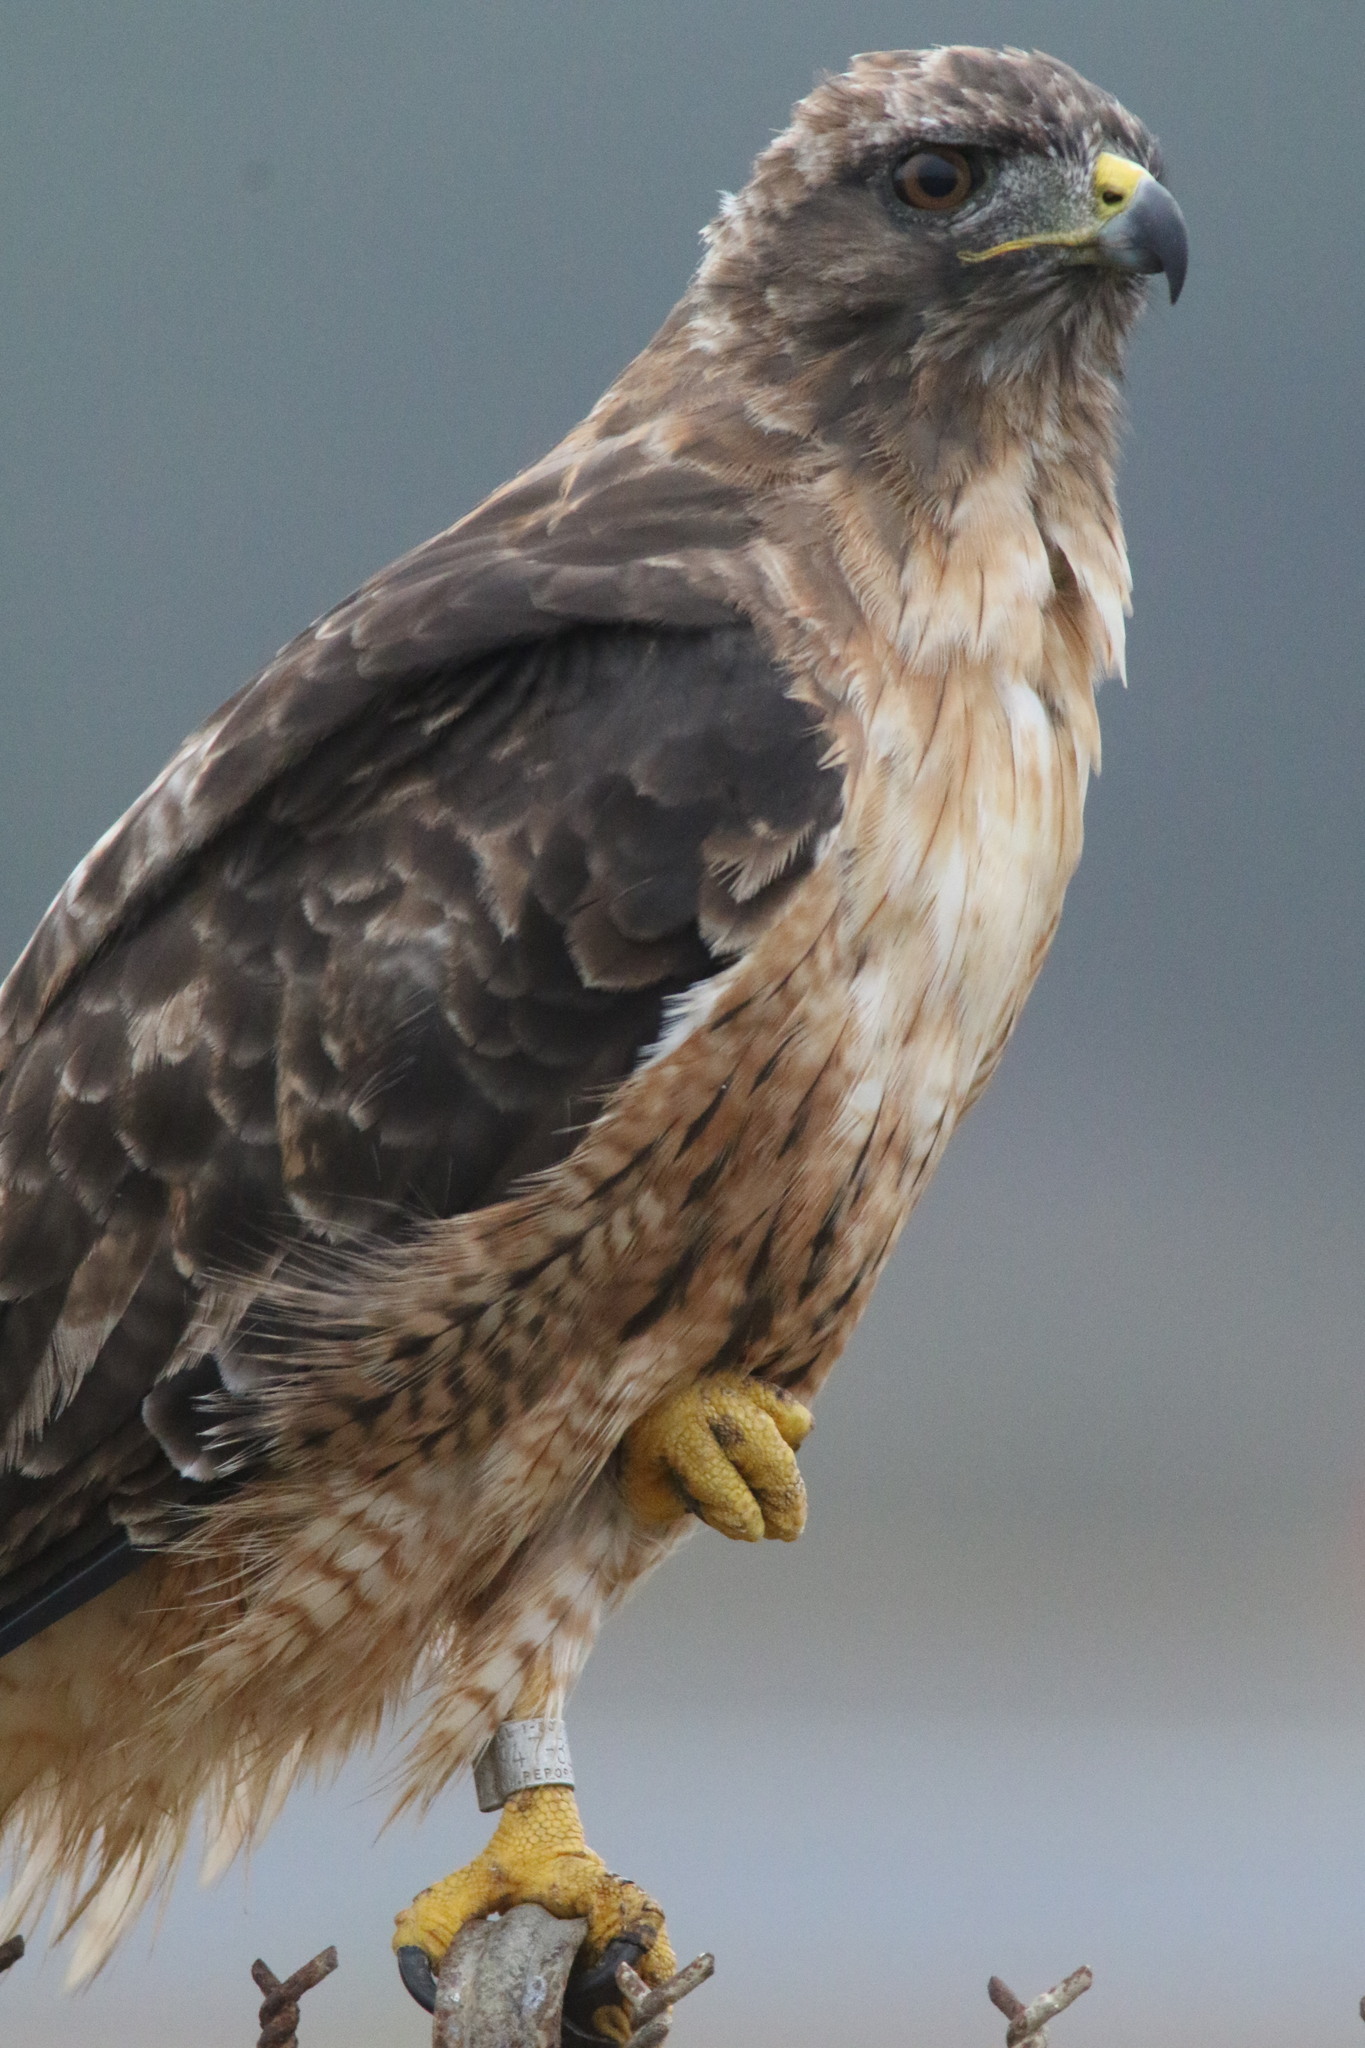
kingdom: Animalia
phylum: Chordata
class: Aves
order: Accipitriformes
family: Accipitridae
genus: Buteo
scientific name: Buteo jamaicensis
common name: Red-tailed hawk
